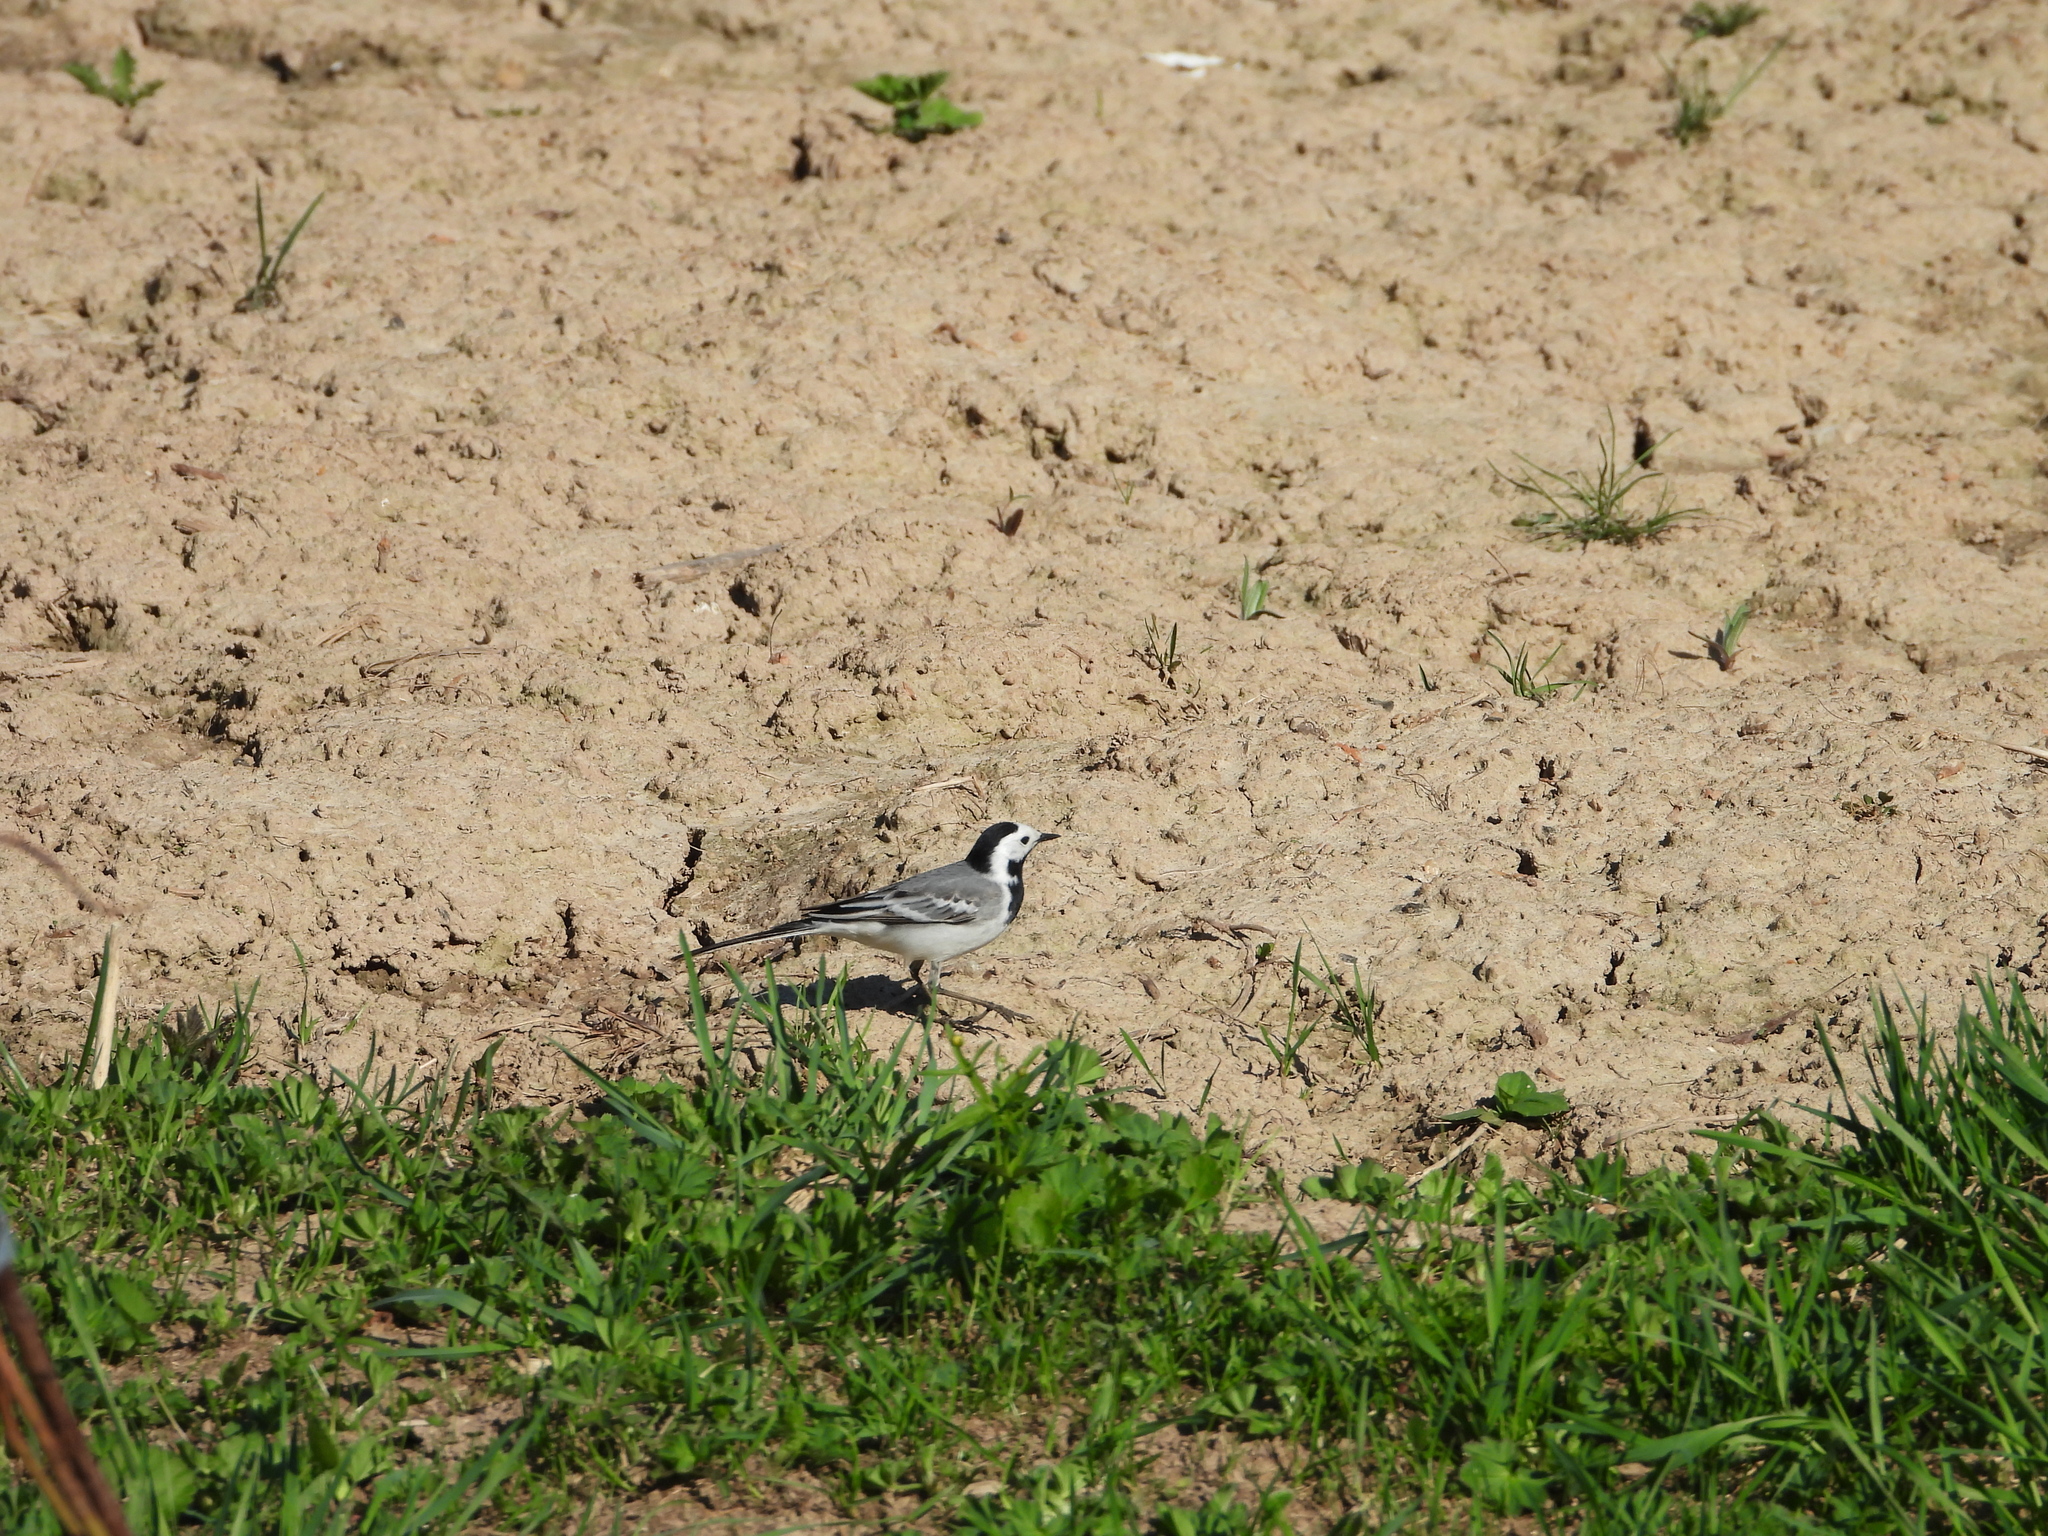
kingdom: Animalia
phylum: Chordata
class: Aves
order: Passeriformes
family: Motacillidae
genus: Motacilla
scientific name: Motacilla alba
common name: White wagtail
